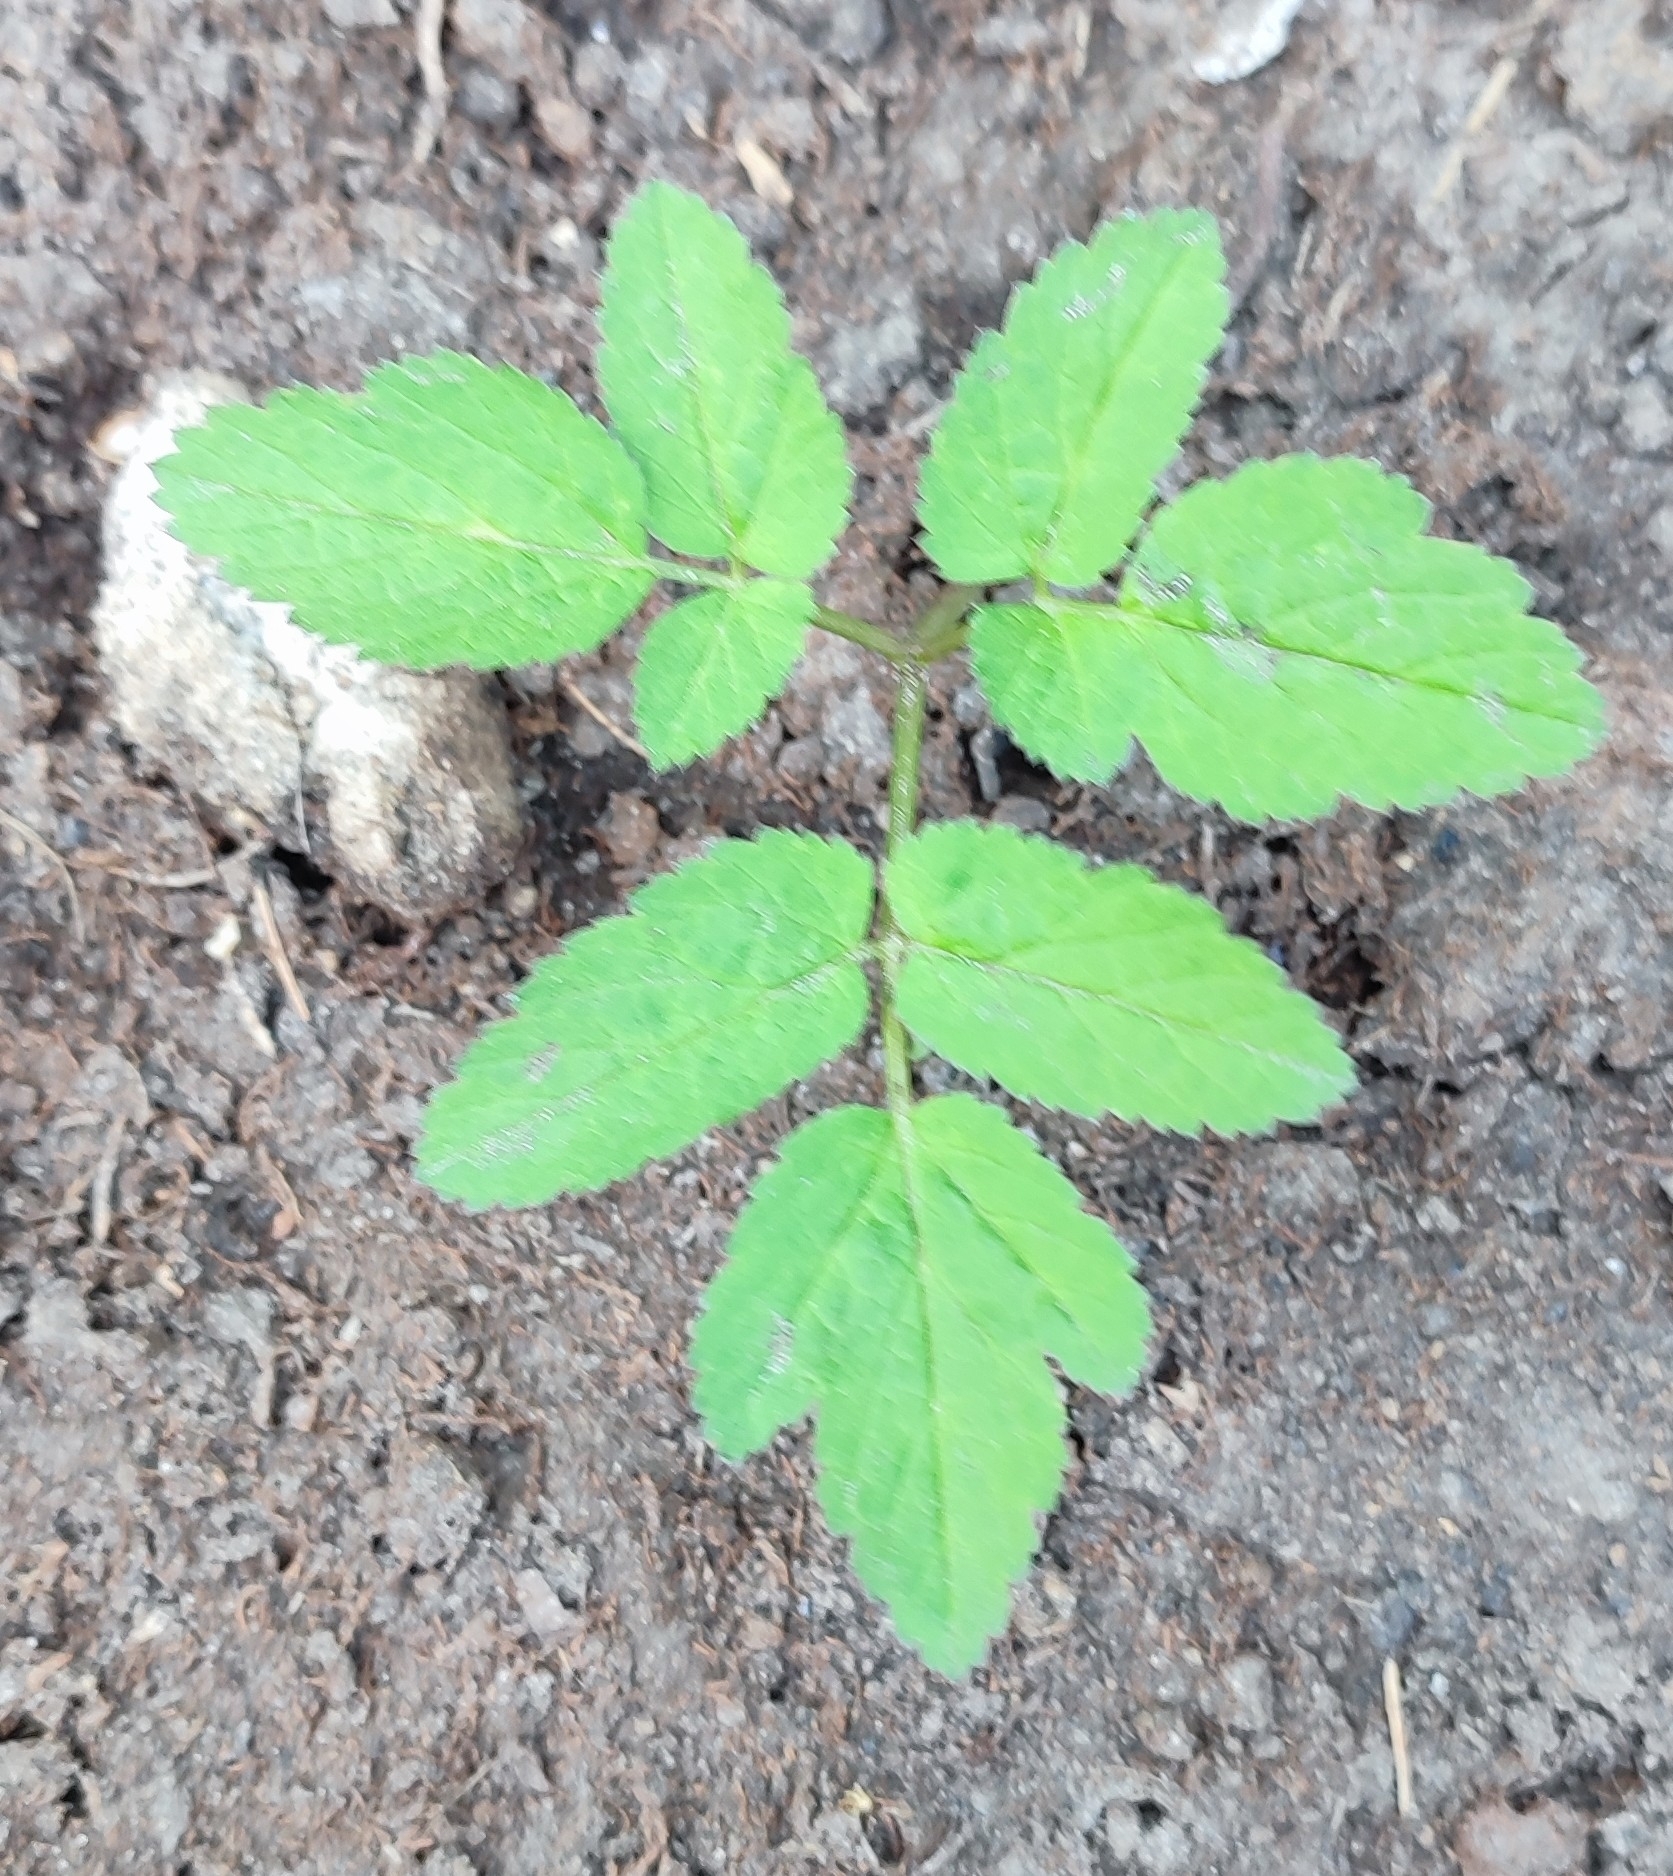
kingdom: Plantae
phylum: Tracheophyta
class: Magnoliopsida
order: Apiales
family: Apiaceae
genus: Aegopodium
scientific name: Aegopodium podagraria
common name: Ground-elder
